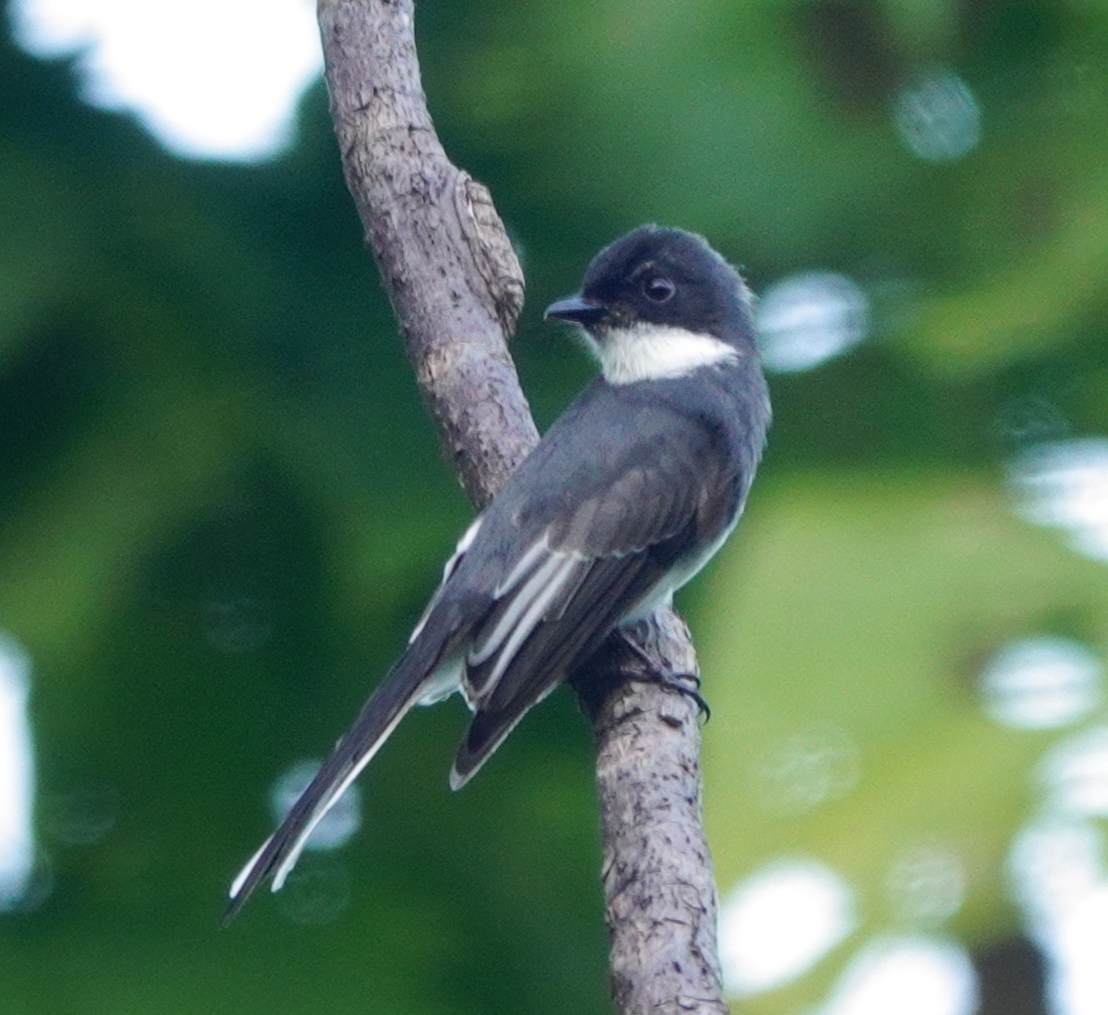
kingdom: Animalia
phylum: Chordata
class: Aves
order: Passeriformes
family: Rhipiduridae
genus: Rhipidura
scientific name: Rhipidura rufiventris
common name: Northern fantail
